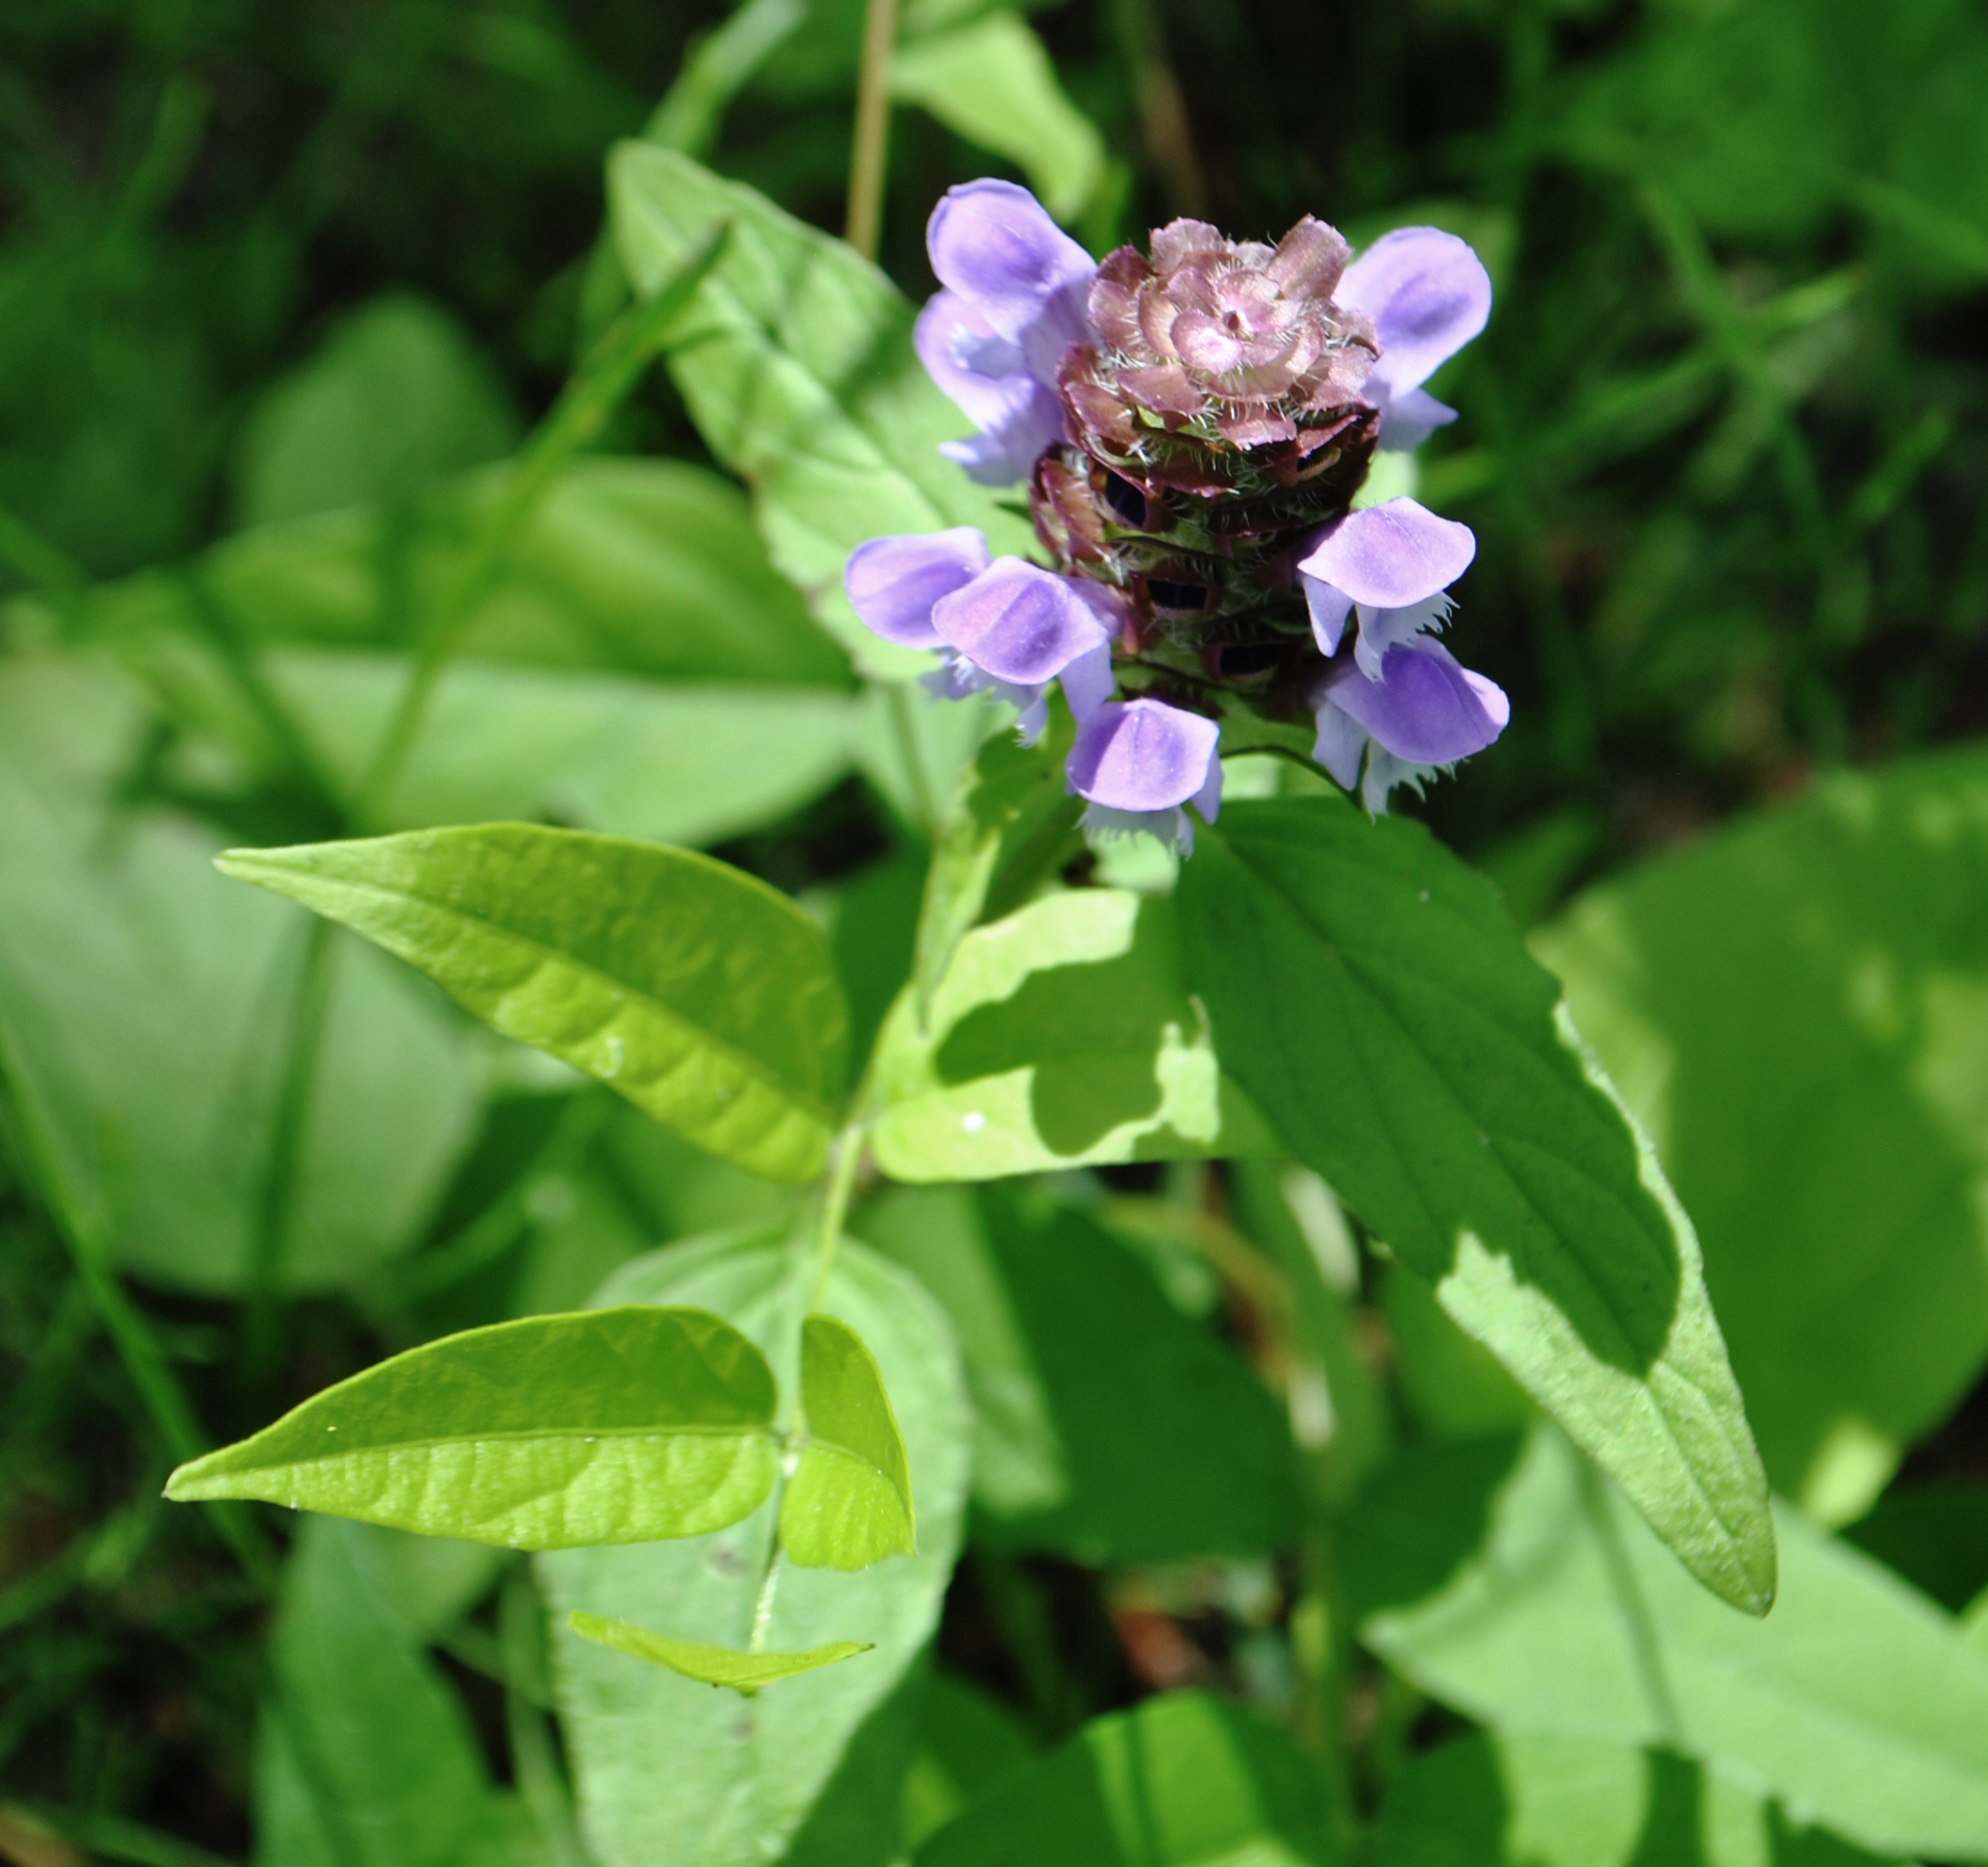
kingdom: Plantae
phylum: Tracheophyta
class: Magnoliopsida
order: Lamiales
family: Lamiaceae
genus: Prunella
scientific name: Prunella vulgaris
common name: Heal-all
